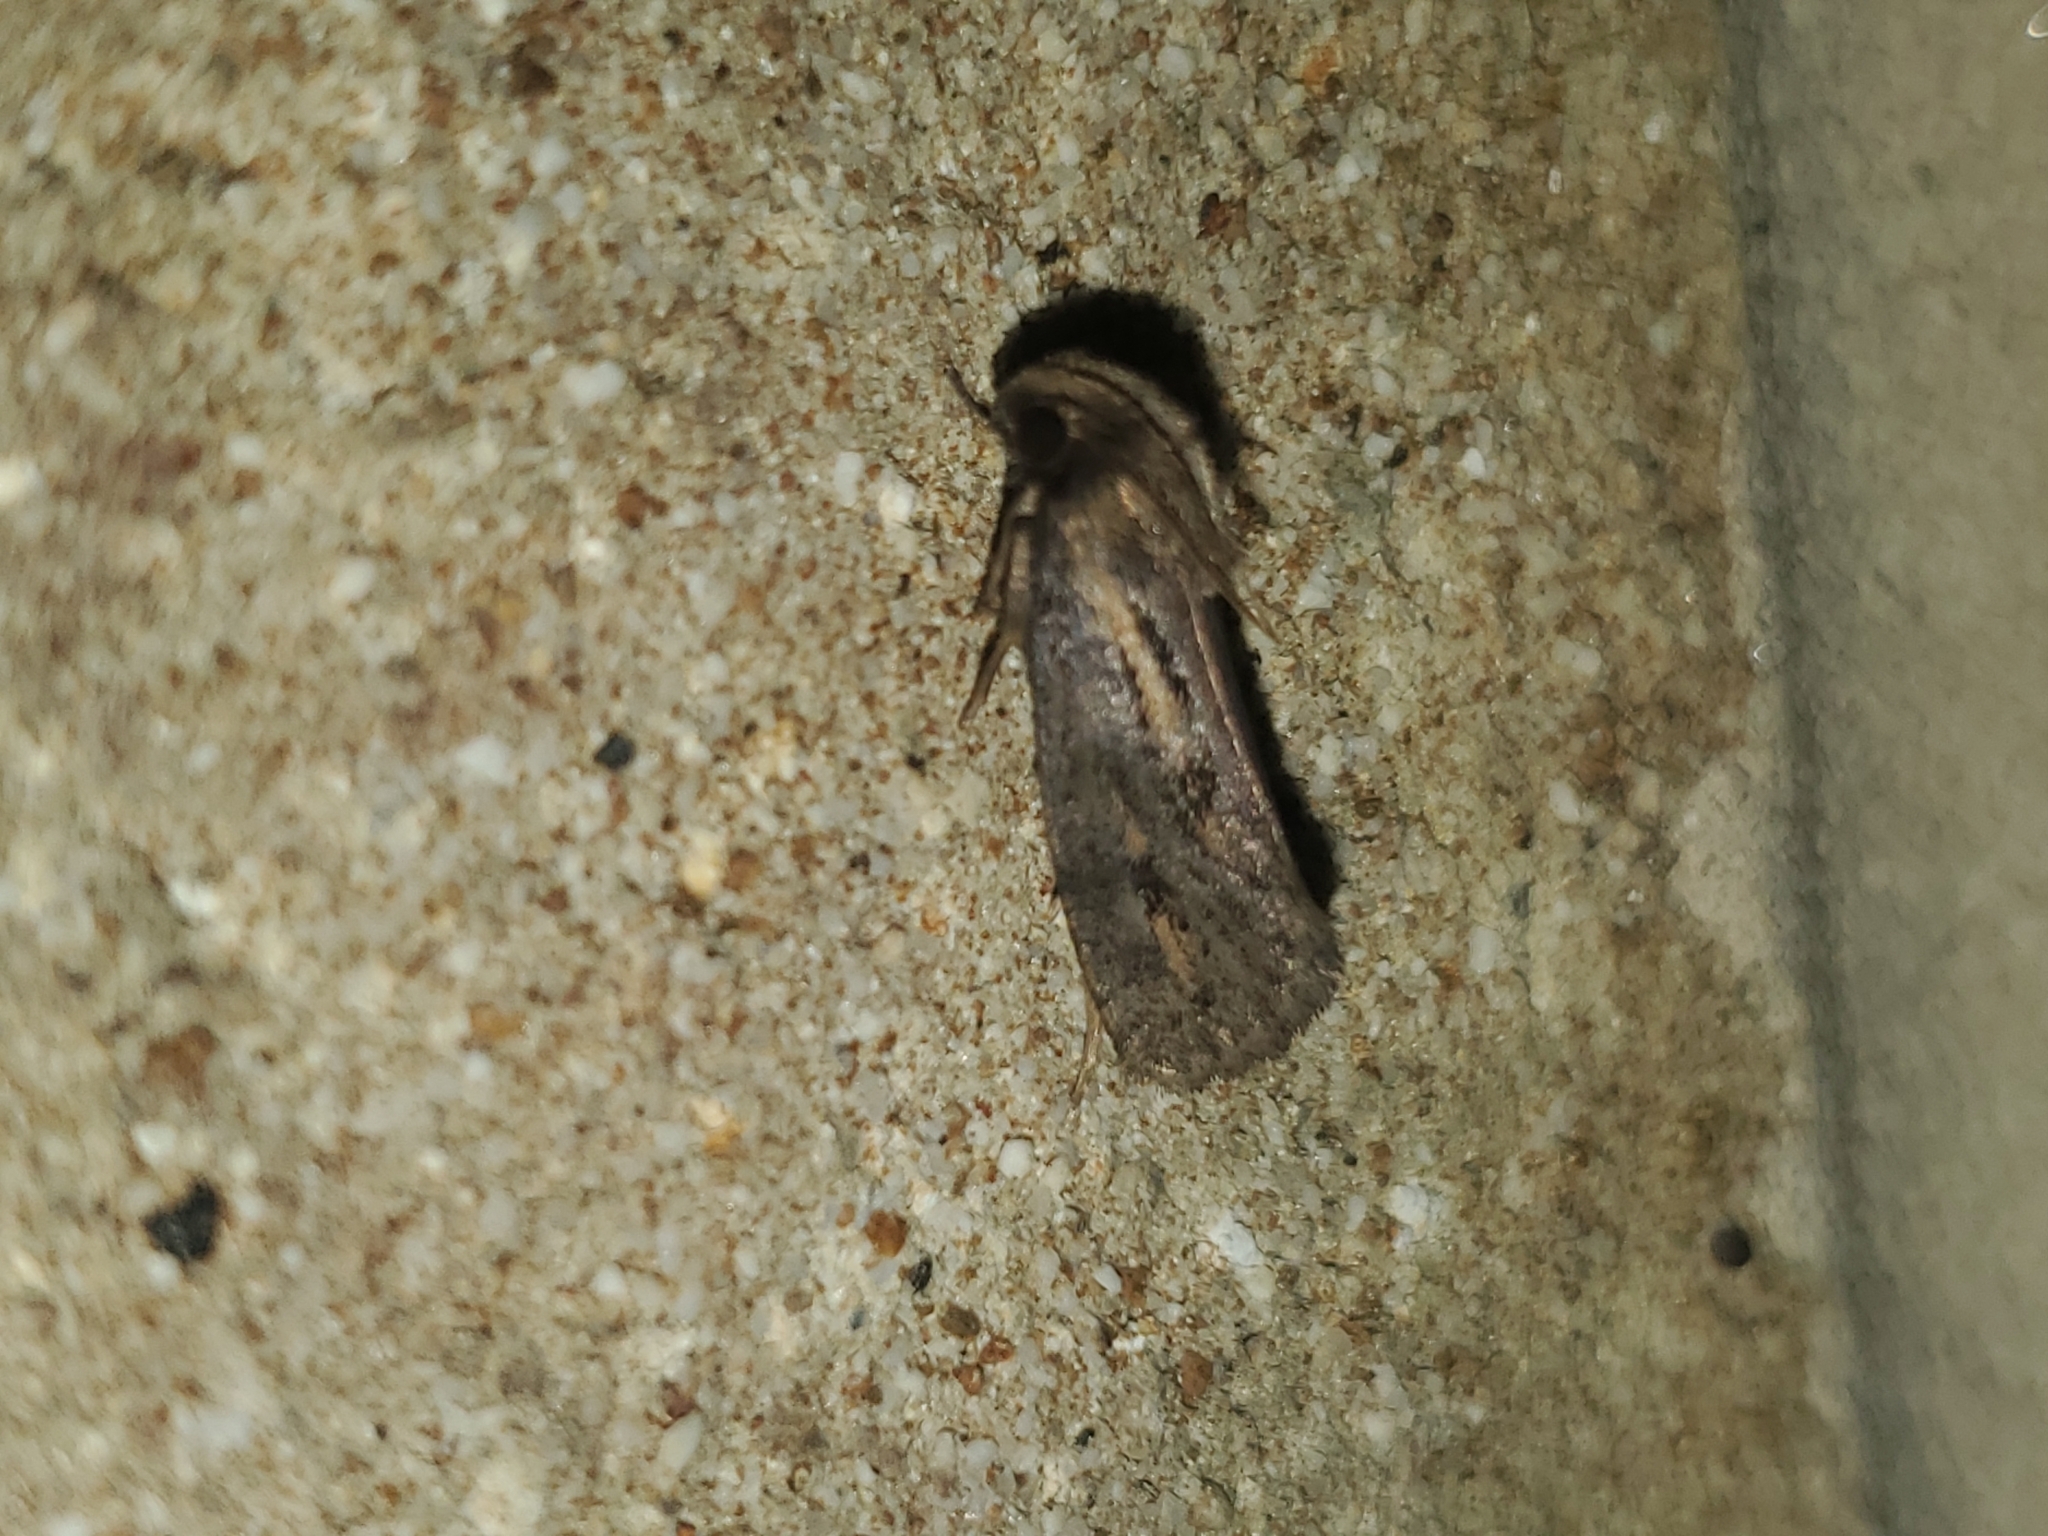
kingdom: Animalia
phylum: Arthropoda
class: Insecta
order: Lepidoptera
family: Tineidae
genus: Acrolophus
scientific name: Acrolophus popeanella
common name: Clemens' grass tubeworm moth
